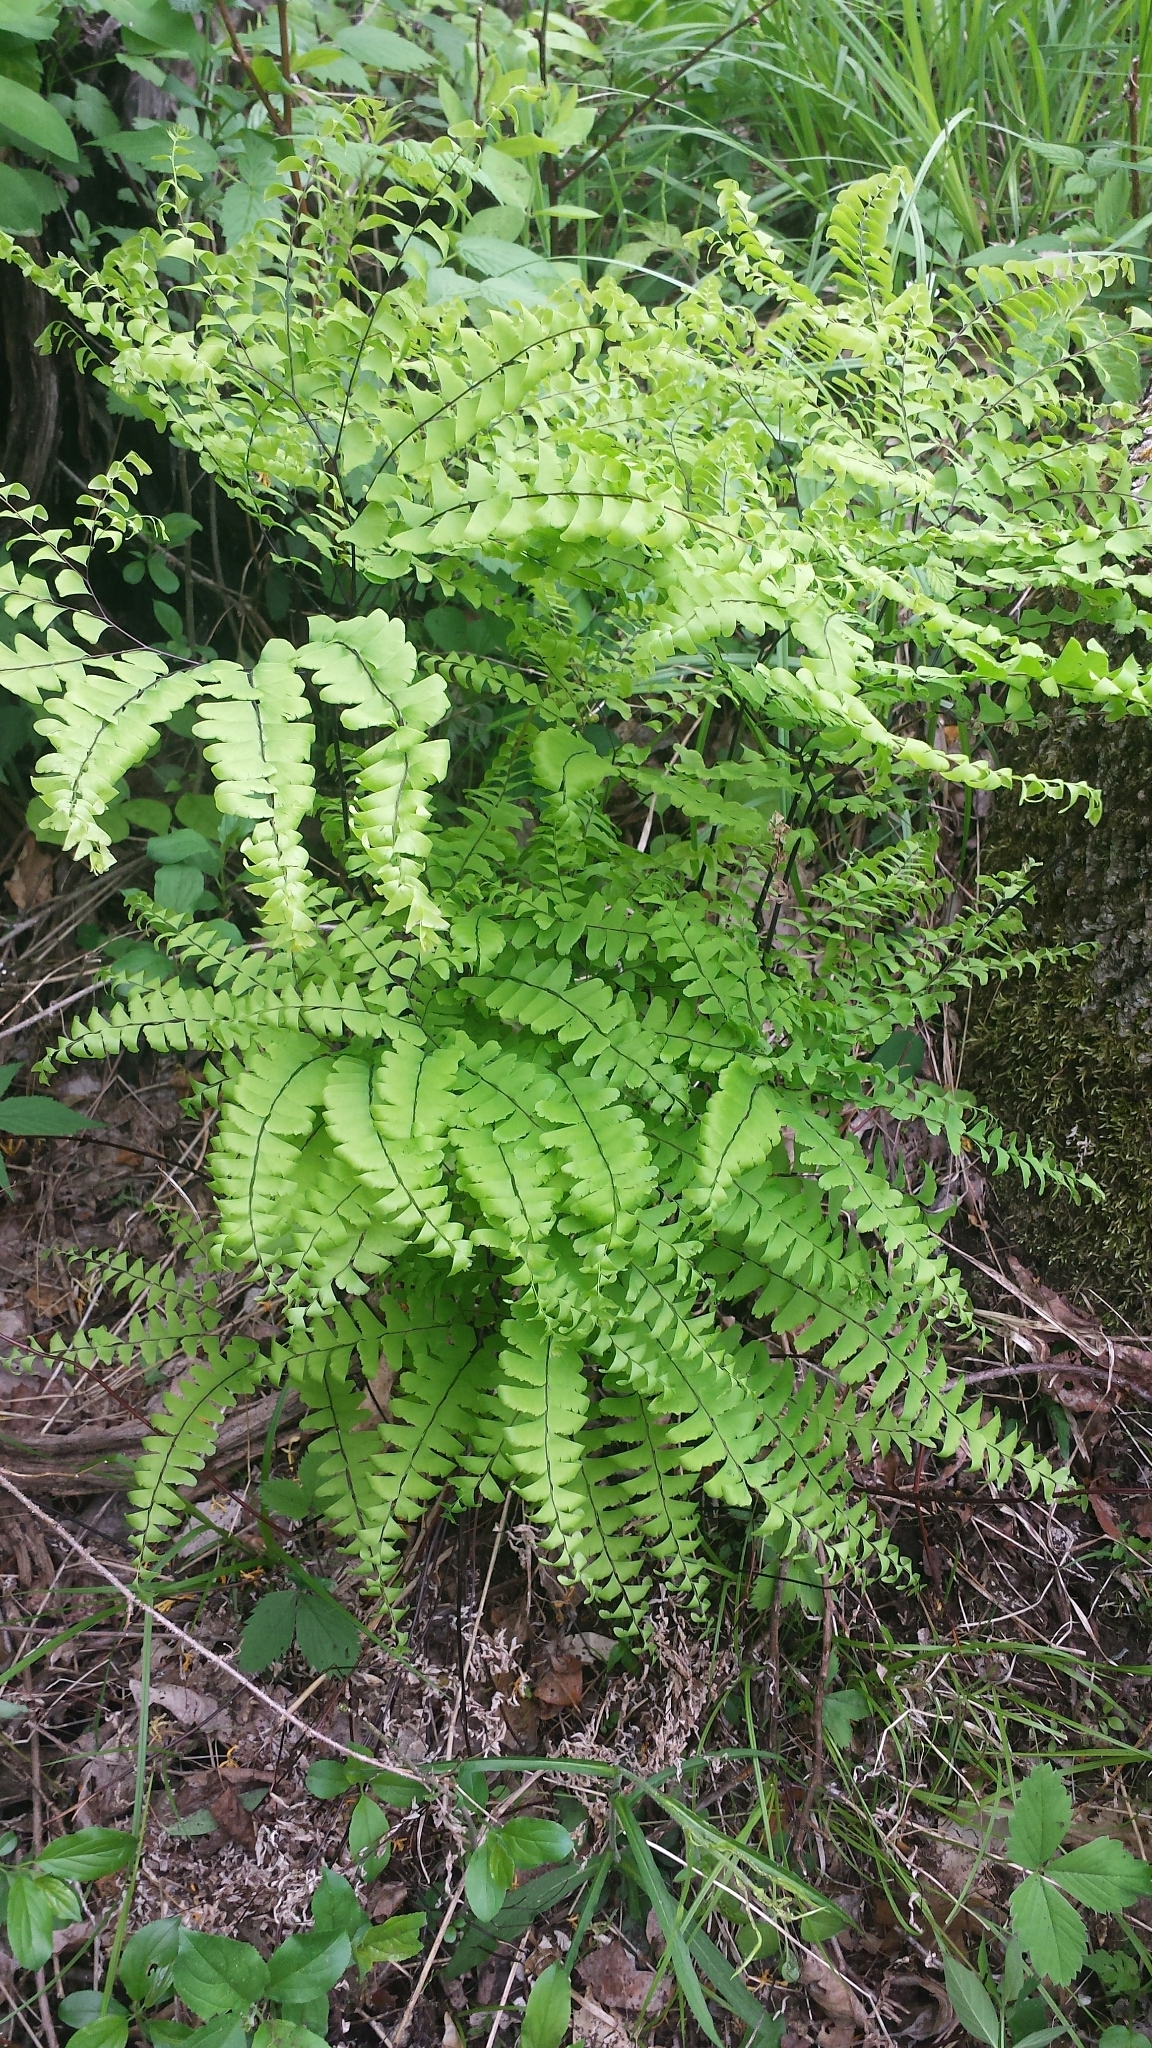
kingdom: Plantae
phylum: Tracheophyta
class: Polypodiopsida
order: Polypodiales
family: Pteridaceae
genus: Adiantum
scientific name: Adiantum pedatum
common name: Five-finger fern
